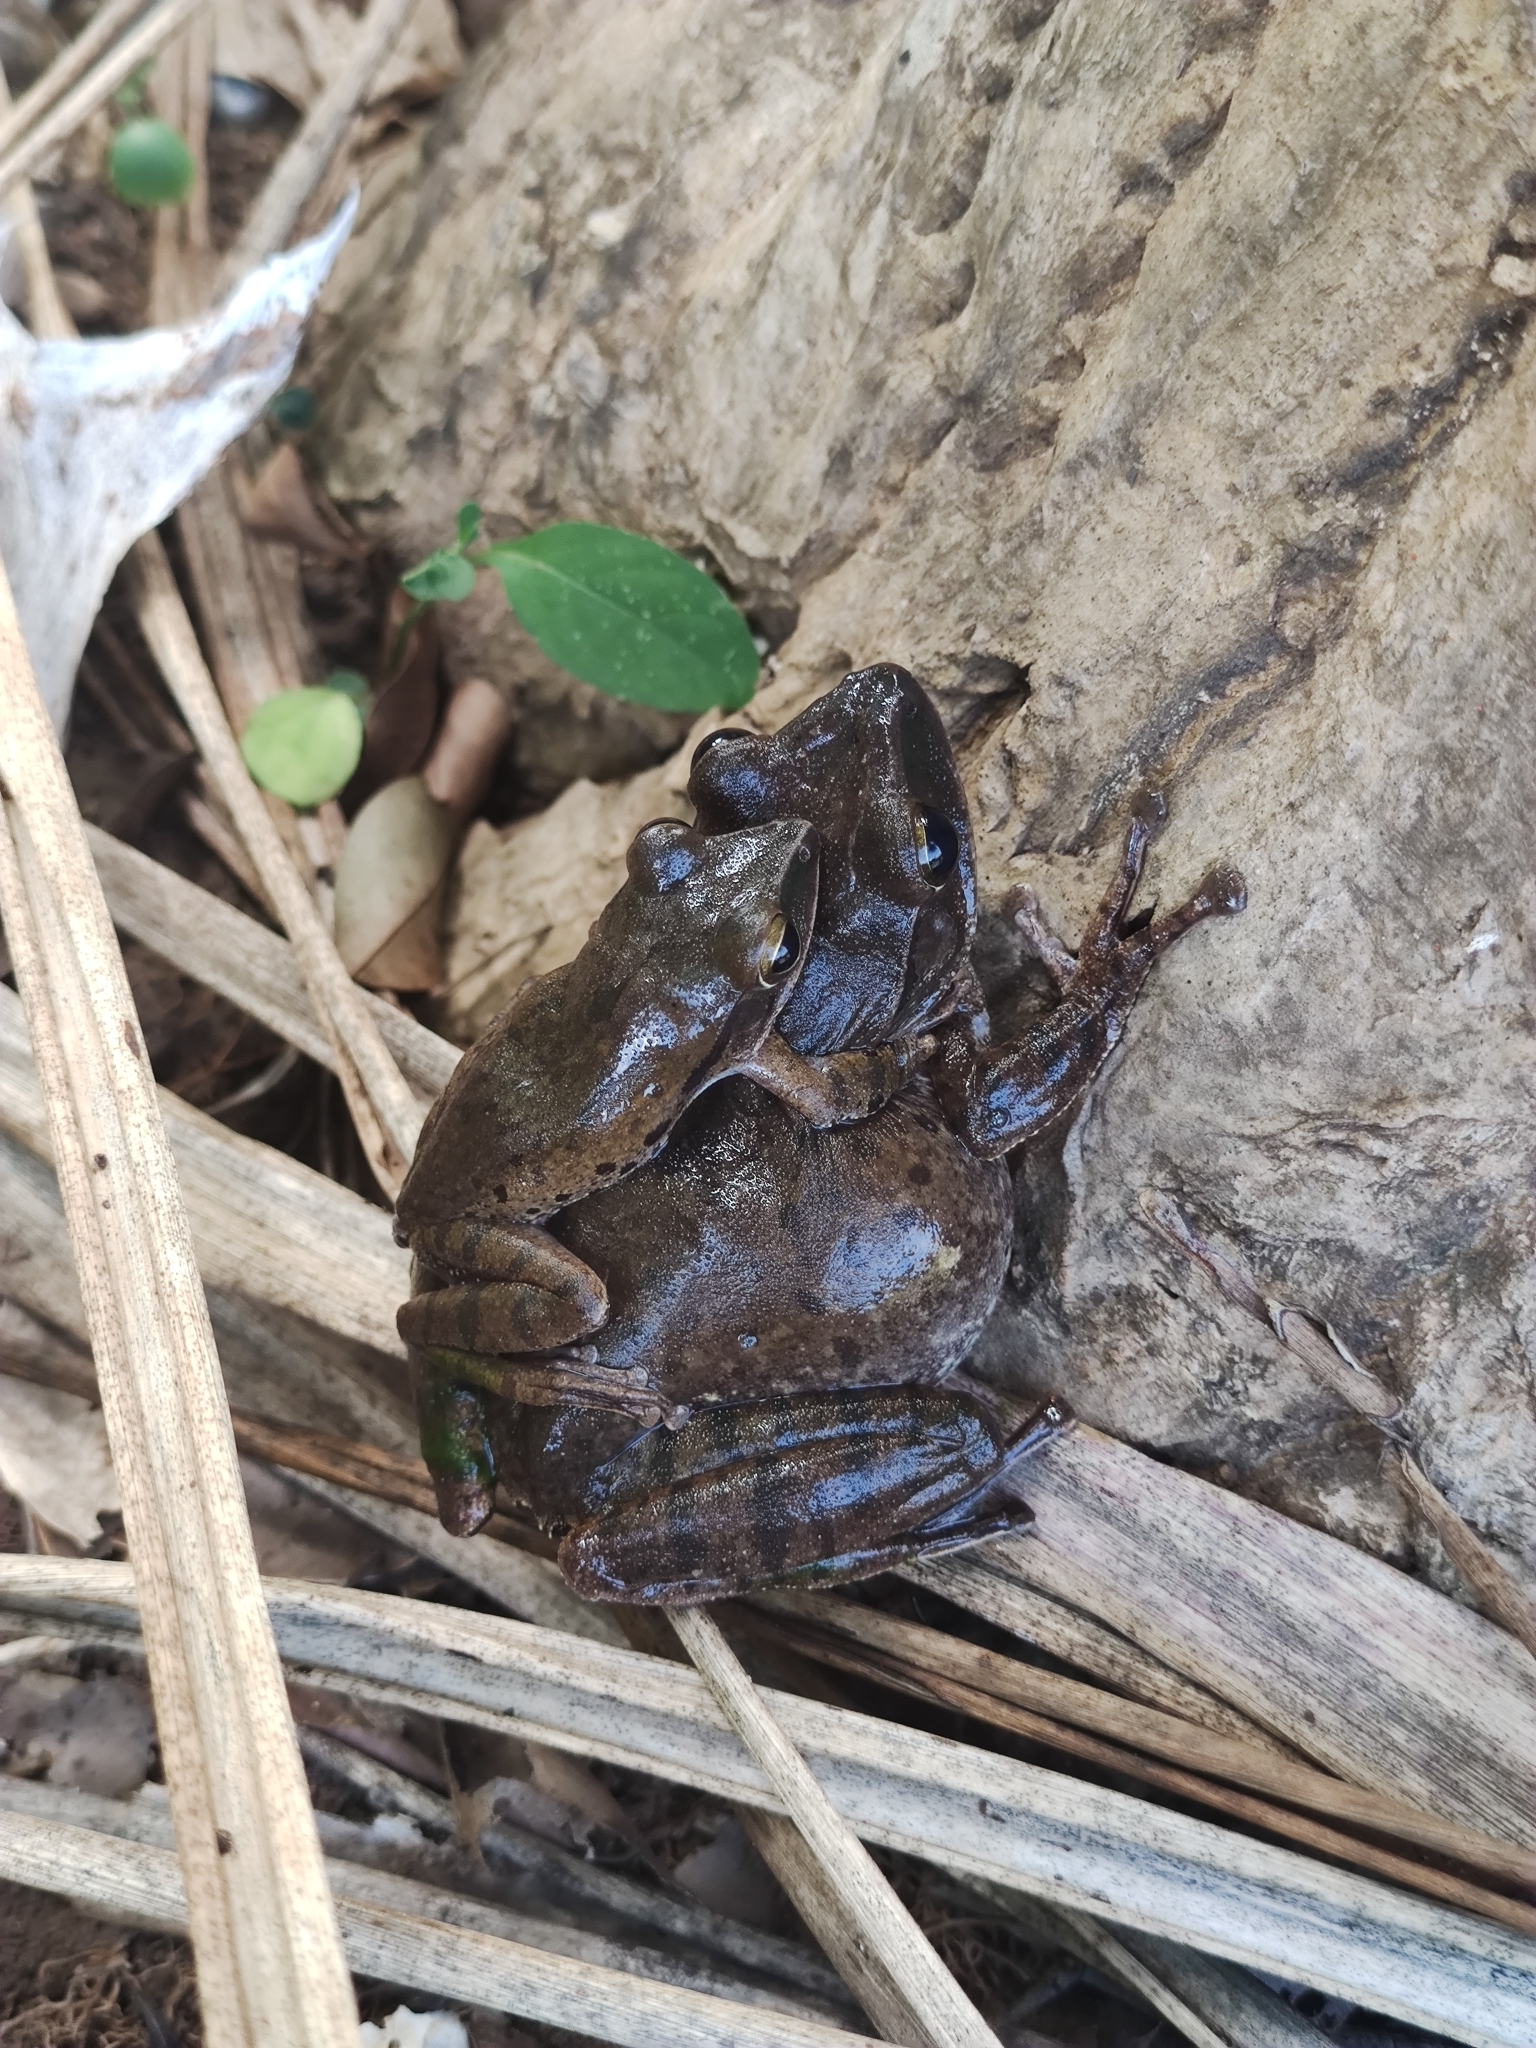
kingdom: Animalia
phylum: Chordata
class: Amphibia
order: Anura
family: Rhacophoridae
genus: Polypedates
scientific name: Polypedates megacephalus
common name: Hong kong whipping frog
